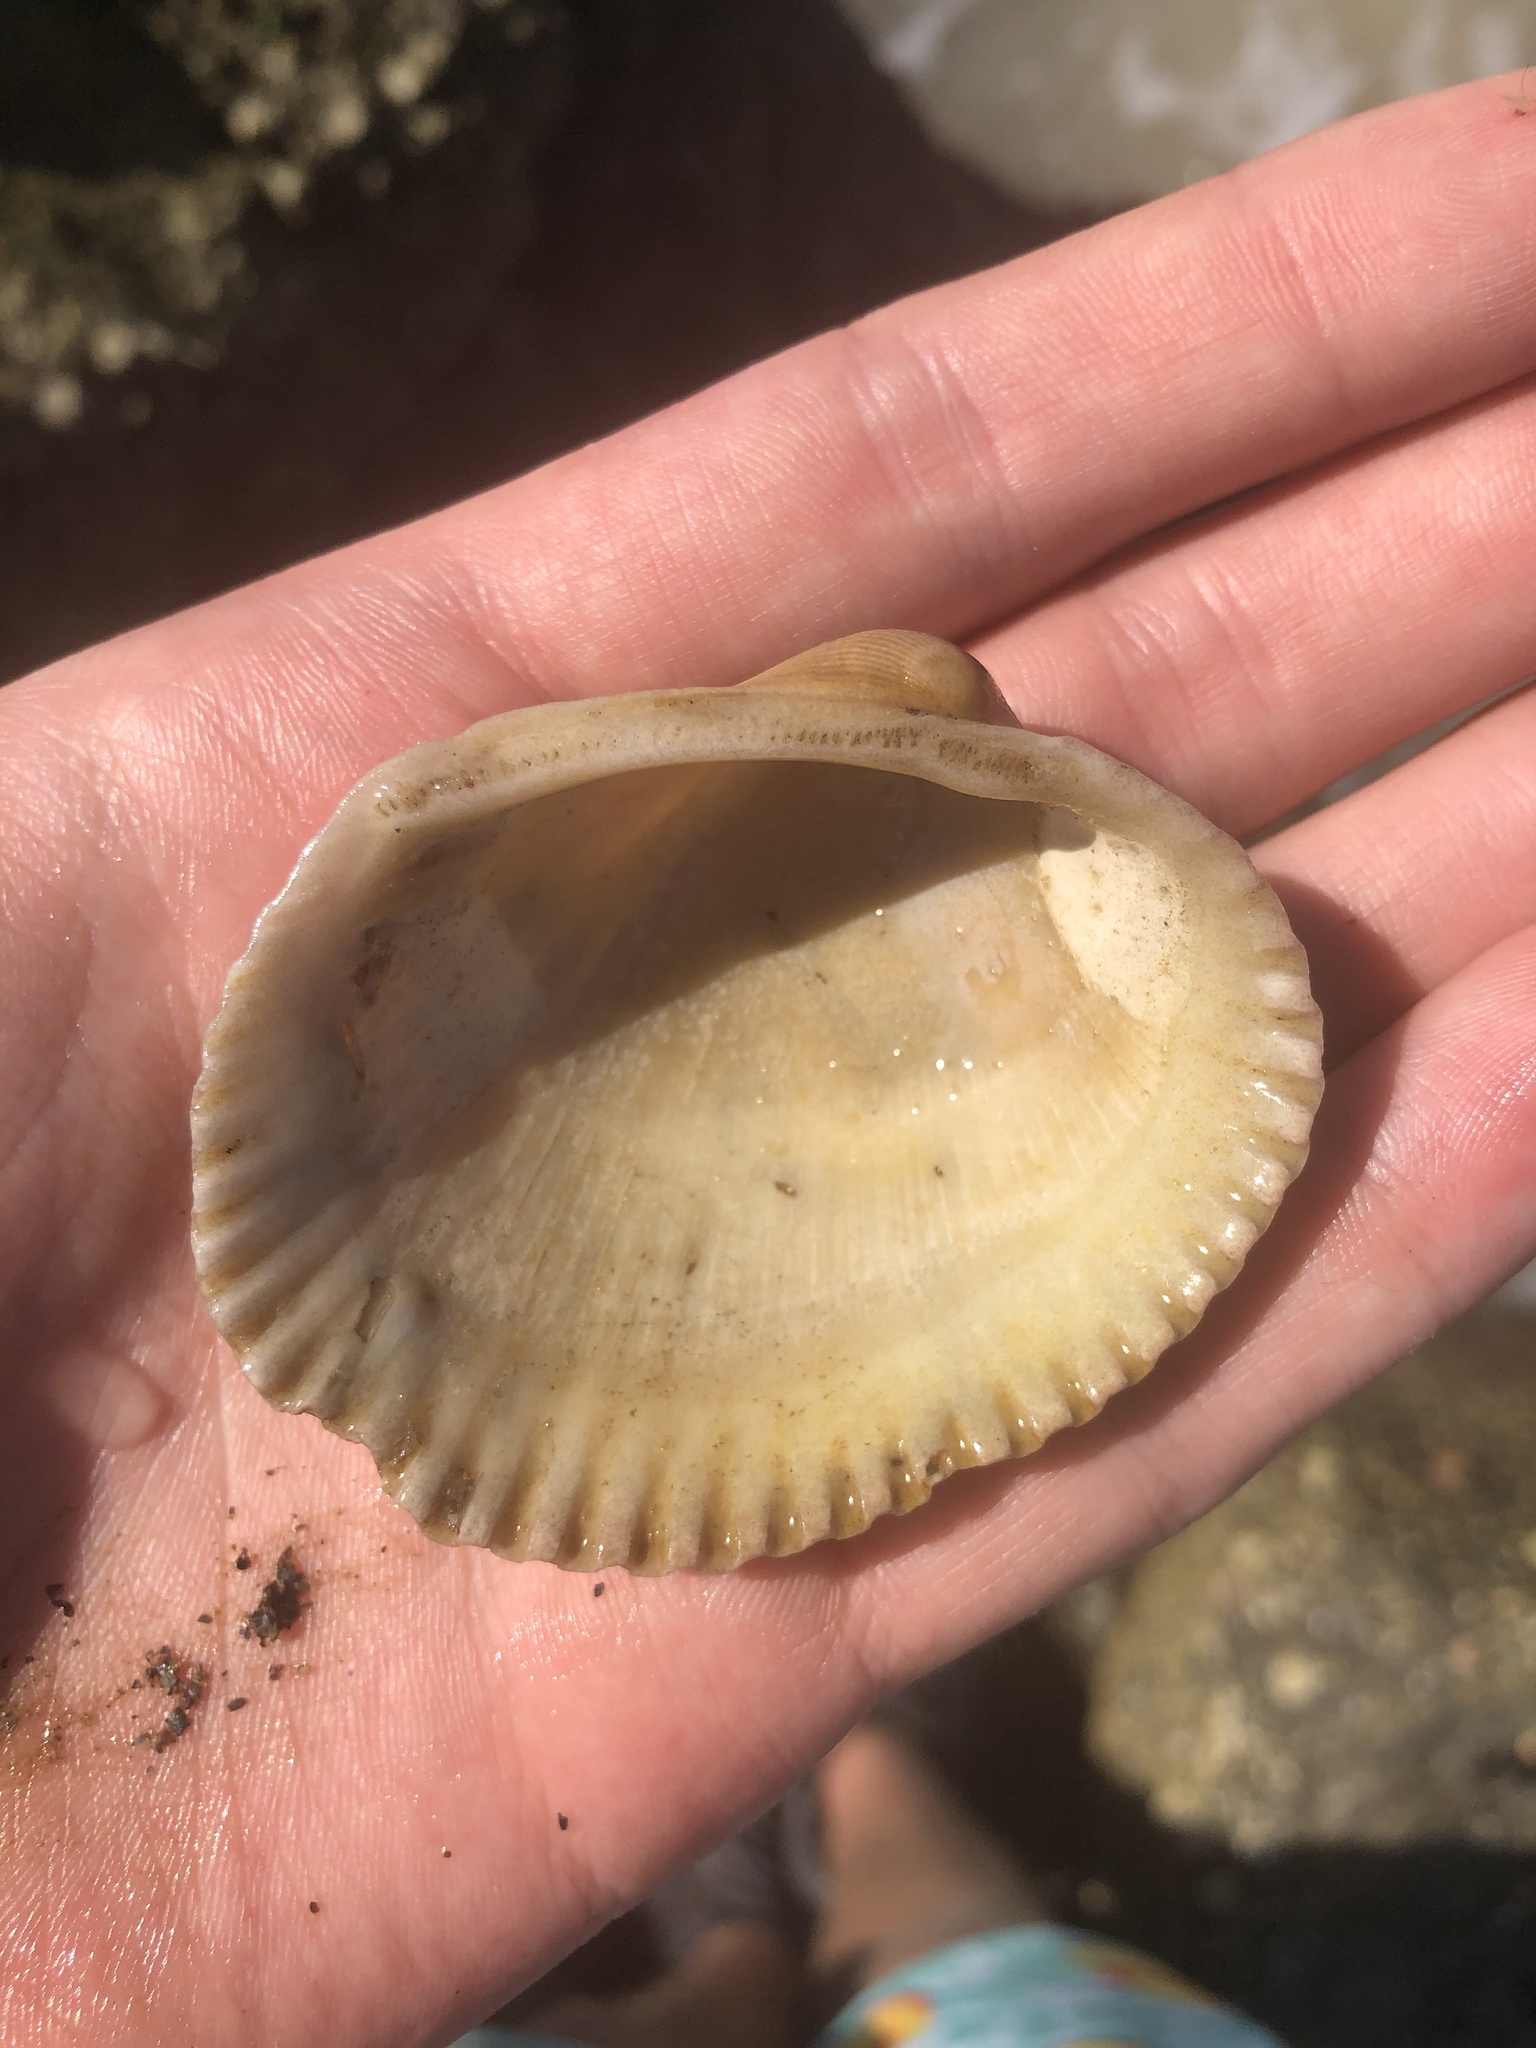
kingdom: Animalia
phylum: Mollusca
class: Bivalvia
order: Arcida
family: Arcidae
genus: Lunarca
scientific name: Lunarca ovalis
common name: Blood ark
